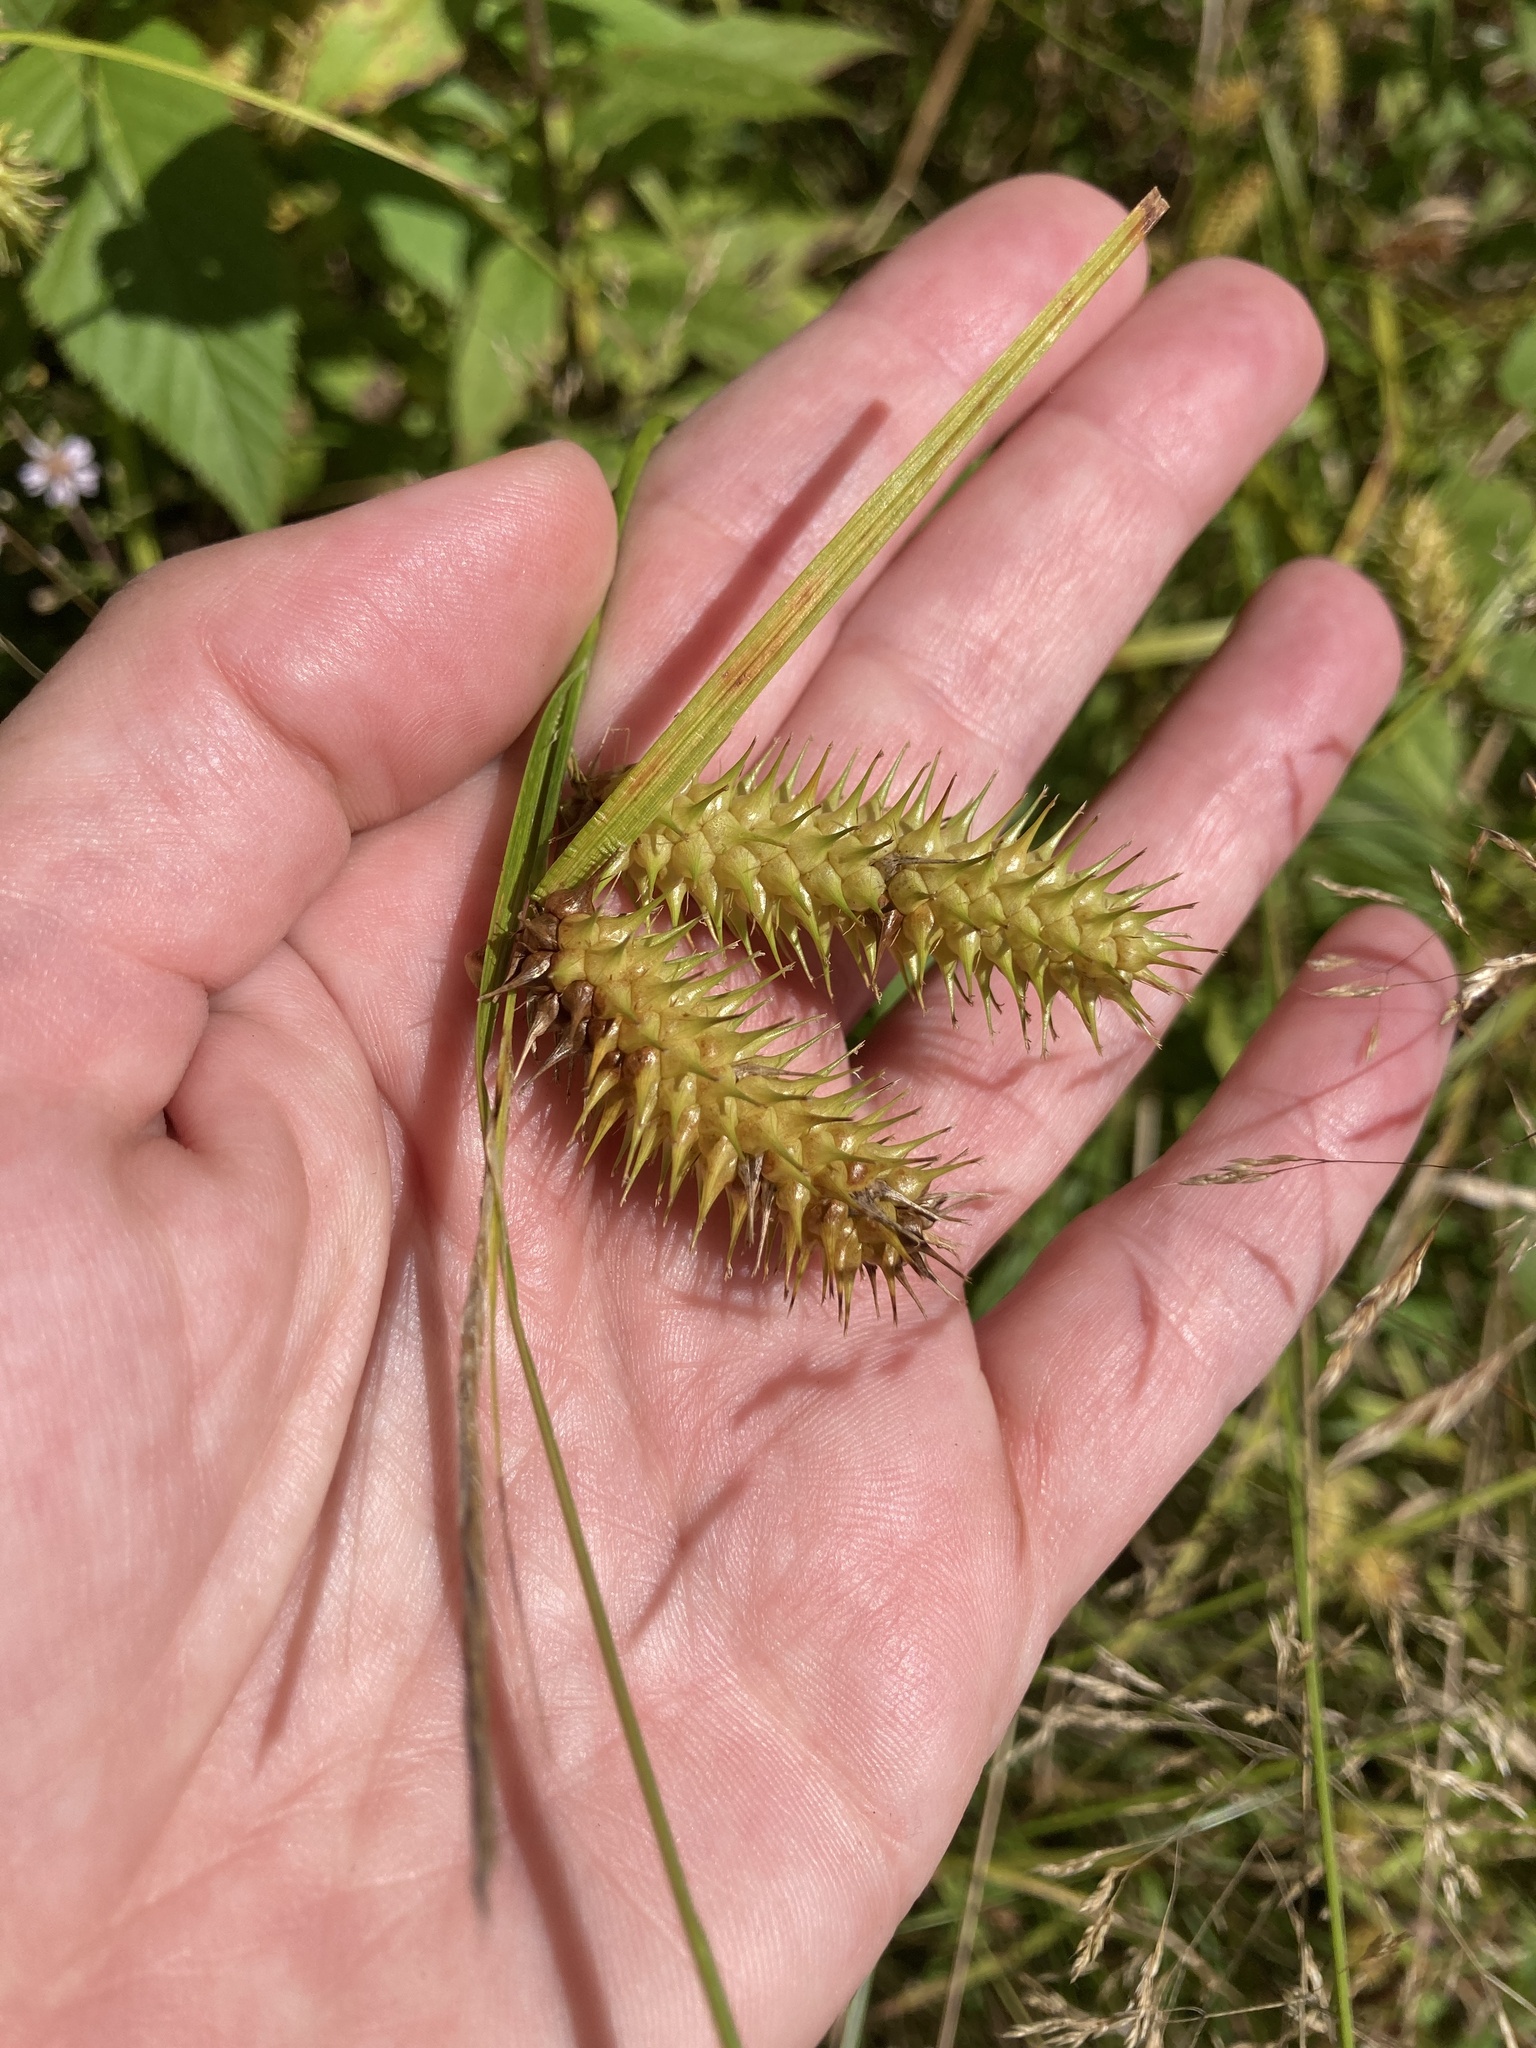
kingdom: Plantae
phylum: Tracheophyta
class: Liliopsida
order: Poales
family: Cyperaceae
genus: Carex
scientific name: Carex lurida
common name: Sallow sedge
